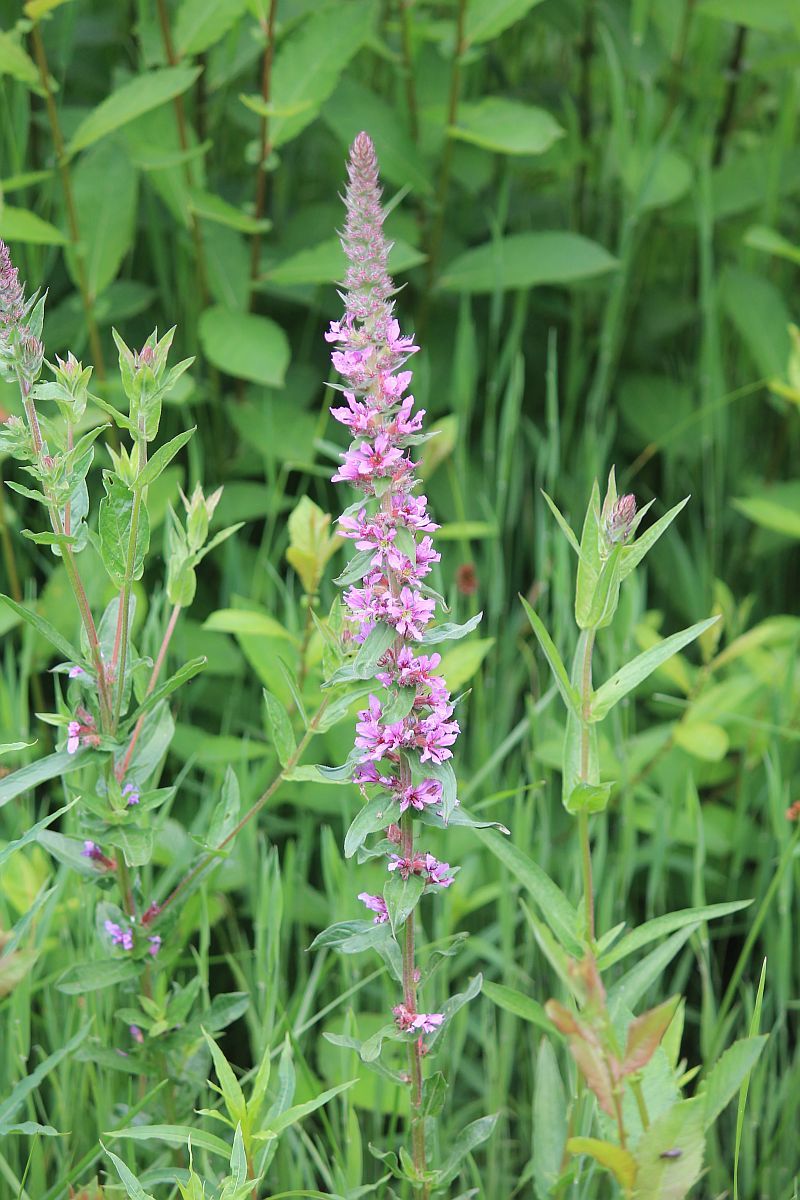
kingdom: Plantae
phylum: Tracheophyta
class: Magnoliopsida
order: Myrtales
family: Lythraceae
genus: Lythrum
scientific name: Lythrum salicaria
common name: Purple loosestrife
